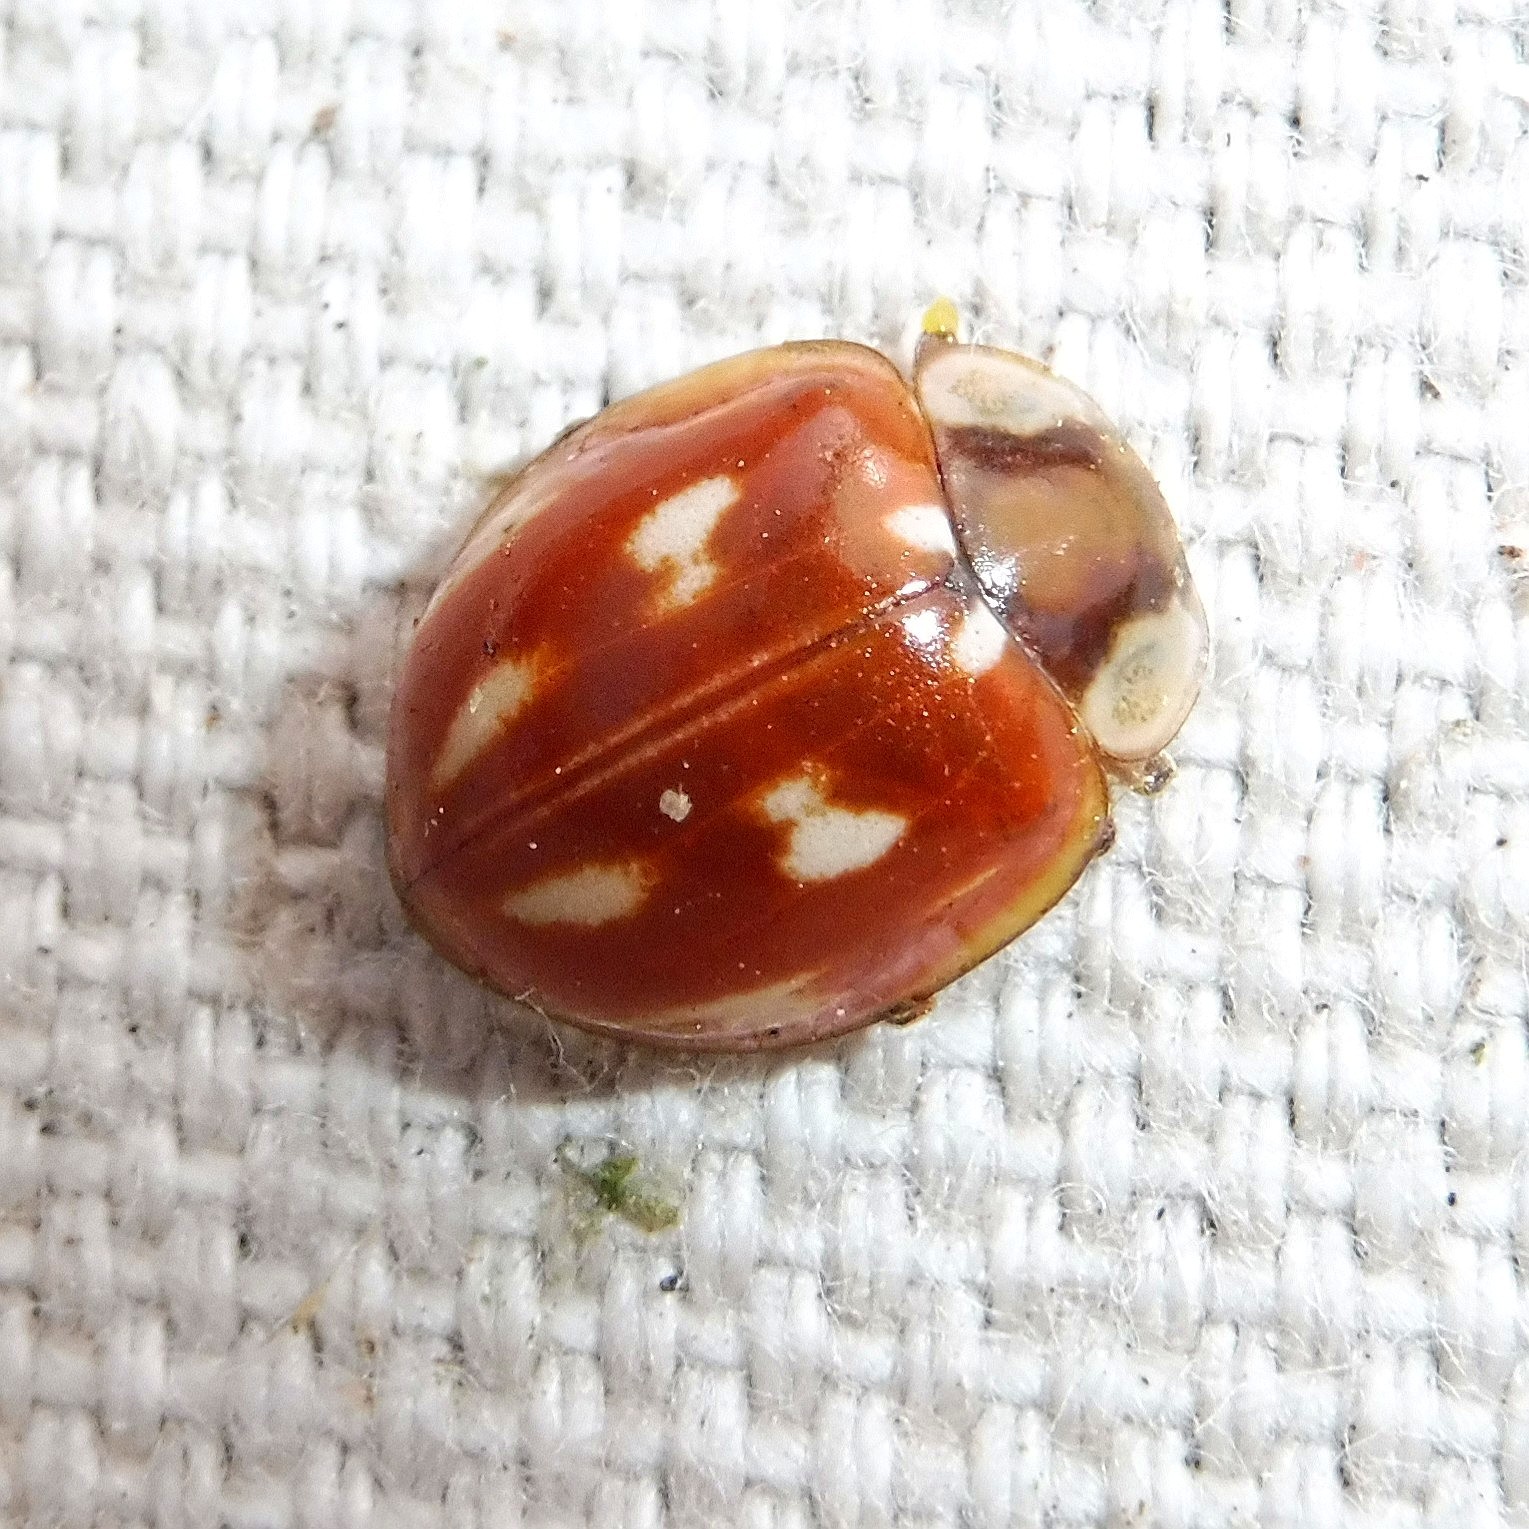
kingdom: Animalia
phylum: Arthropoda
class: Insecta
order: Coleoptera
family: Coccinellidae
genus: Myzia
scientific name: Myzia oblongoguttata
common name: Striped ladybird
